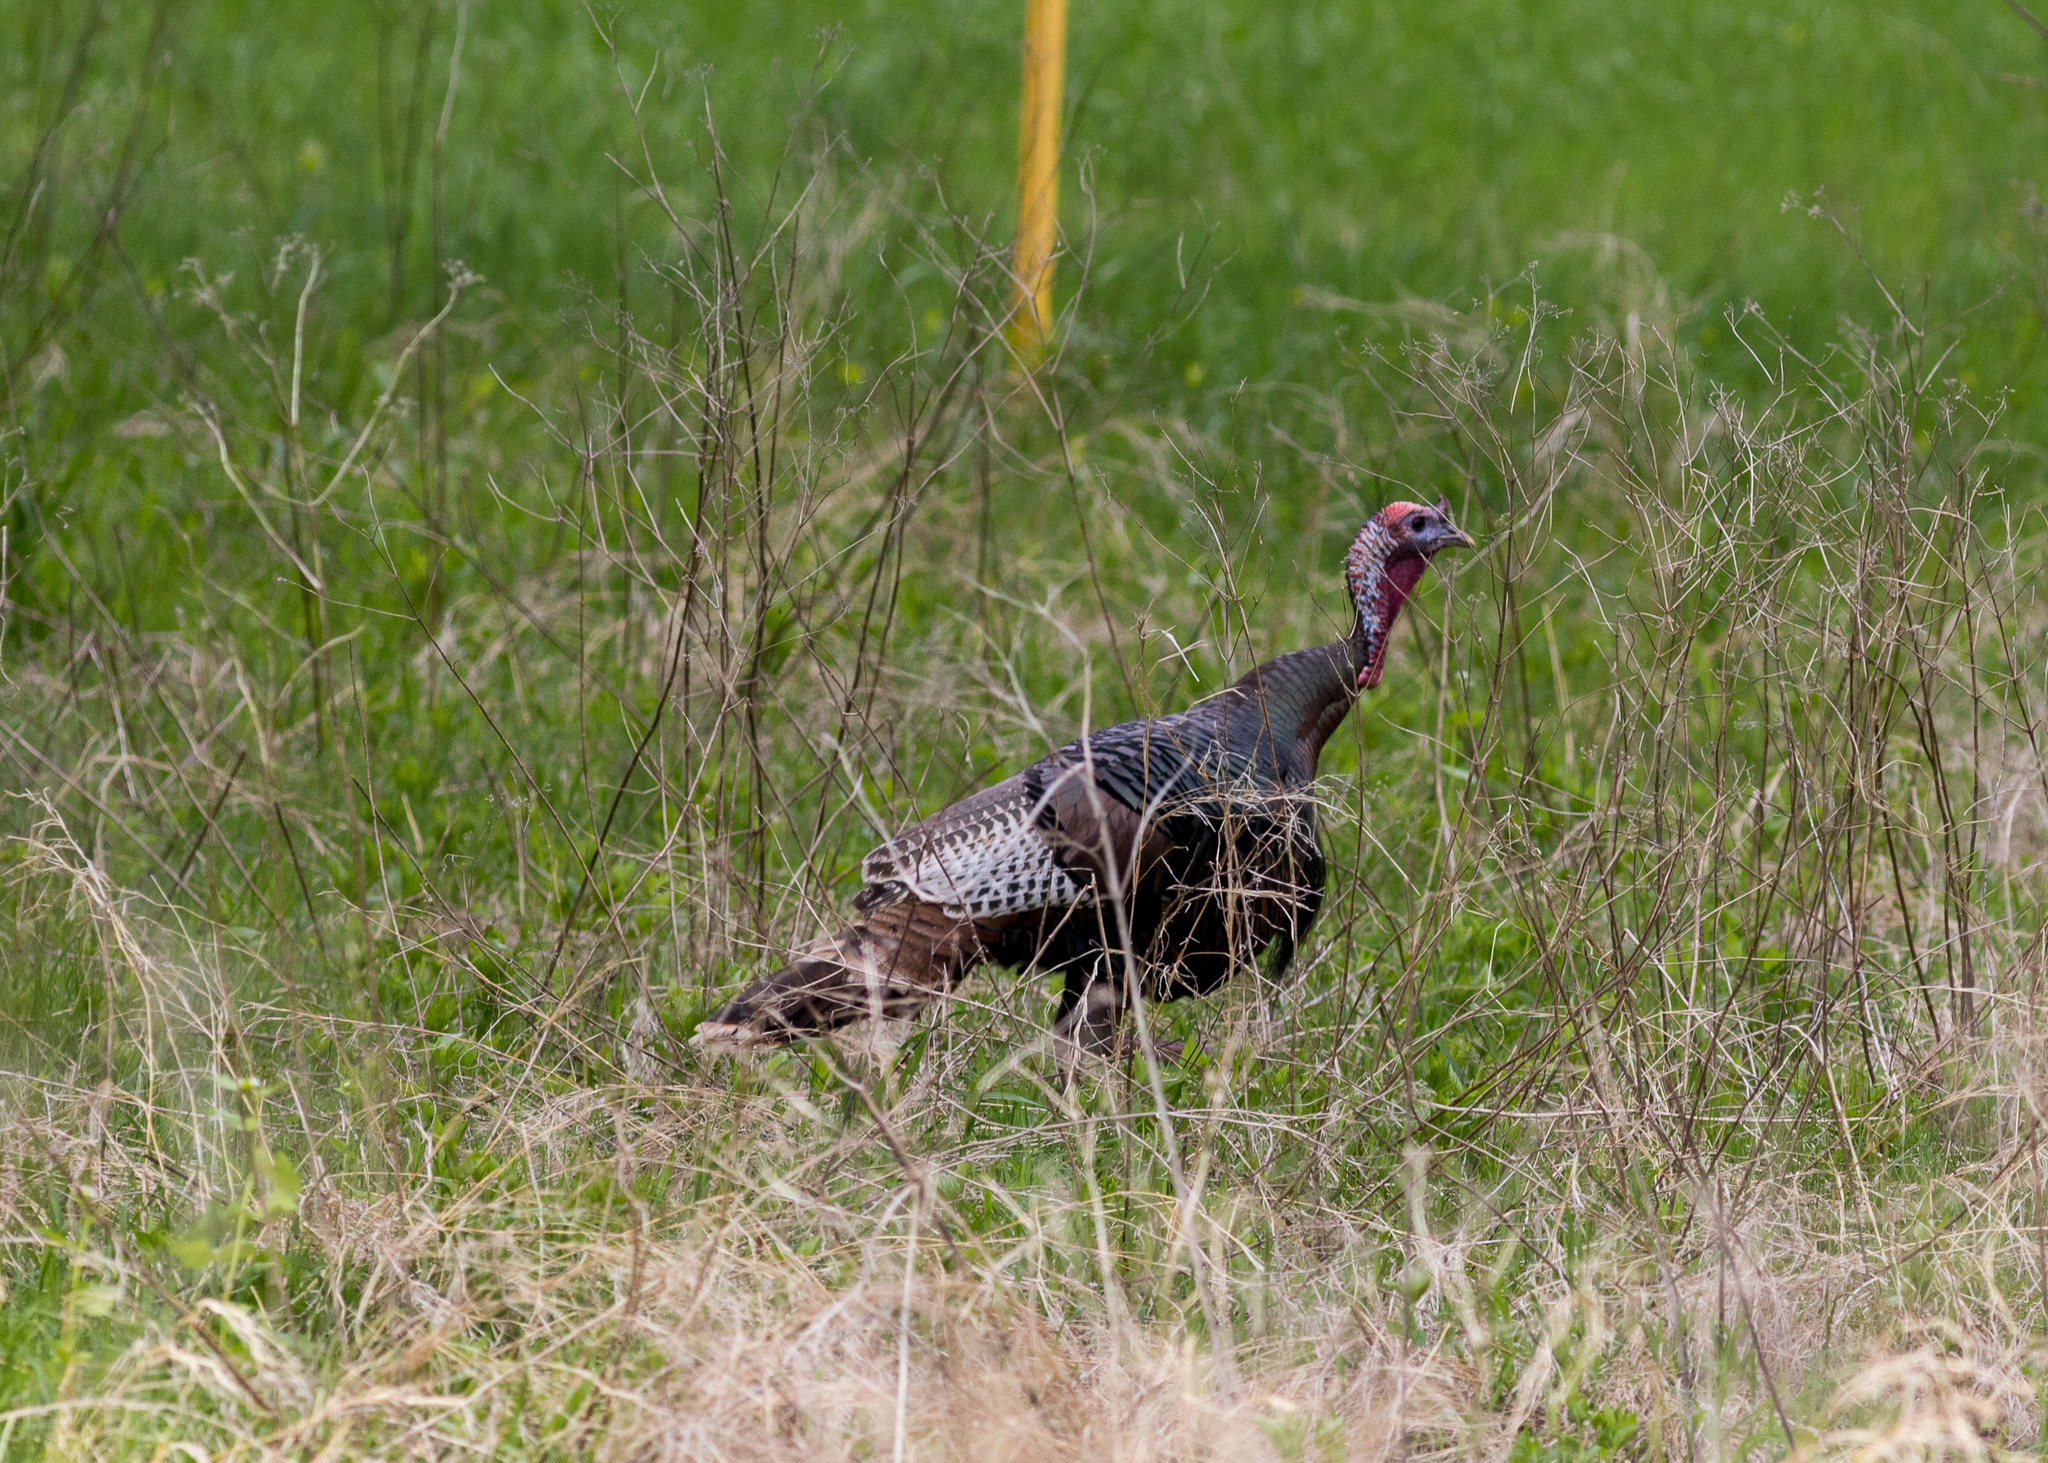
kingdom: Animalia
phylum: Chordata
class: Aves
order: Galliformes
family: Phasianidae
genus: Meleagris
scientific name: Meleagris gallopavo
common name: Wild turkey
